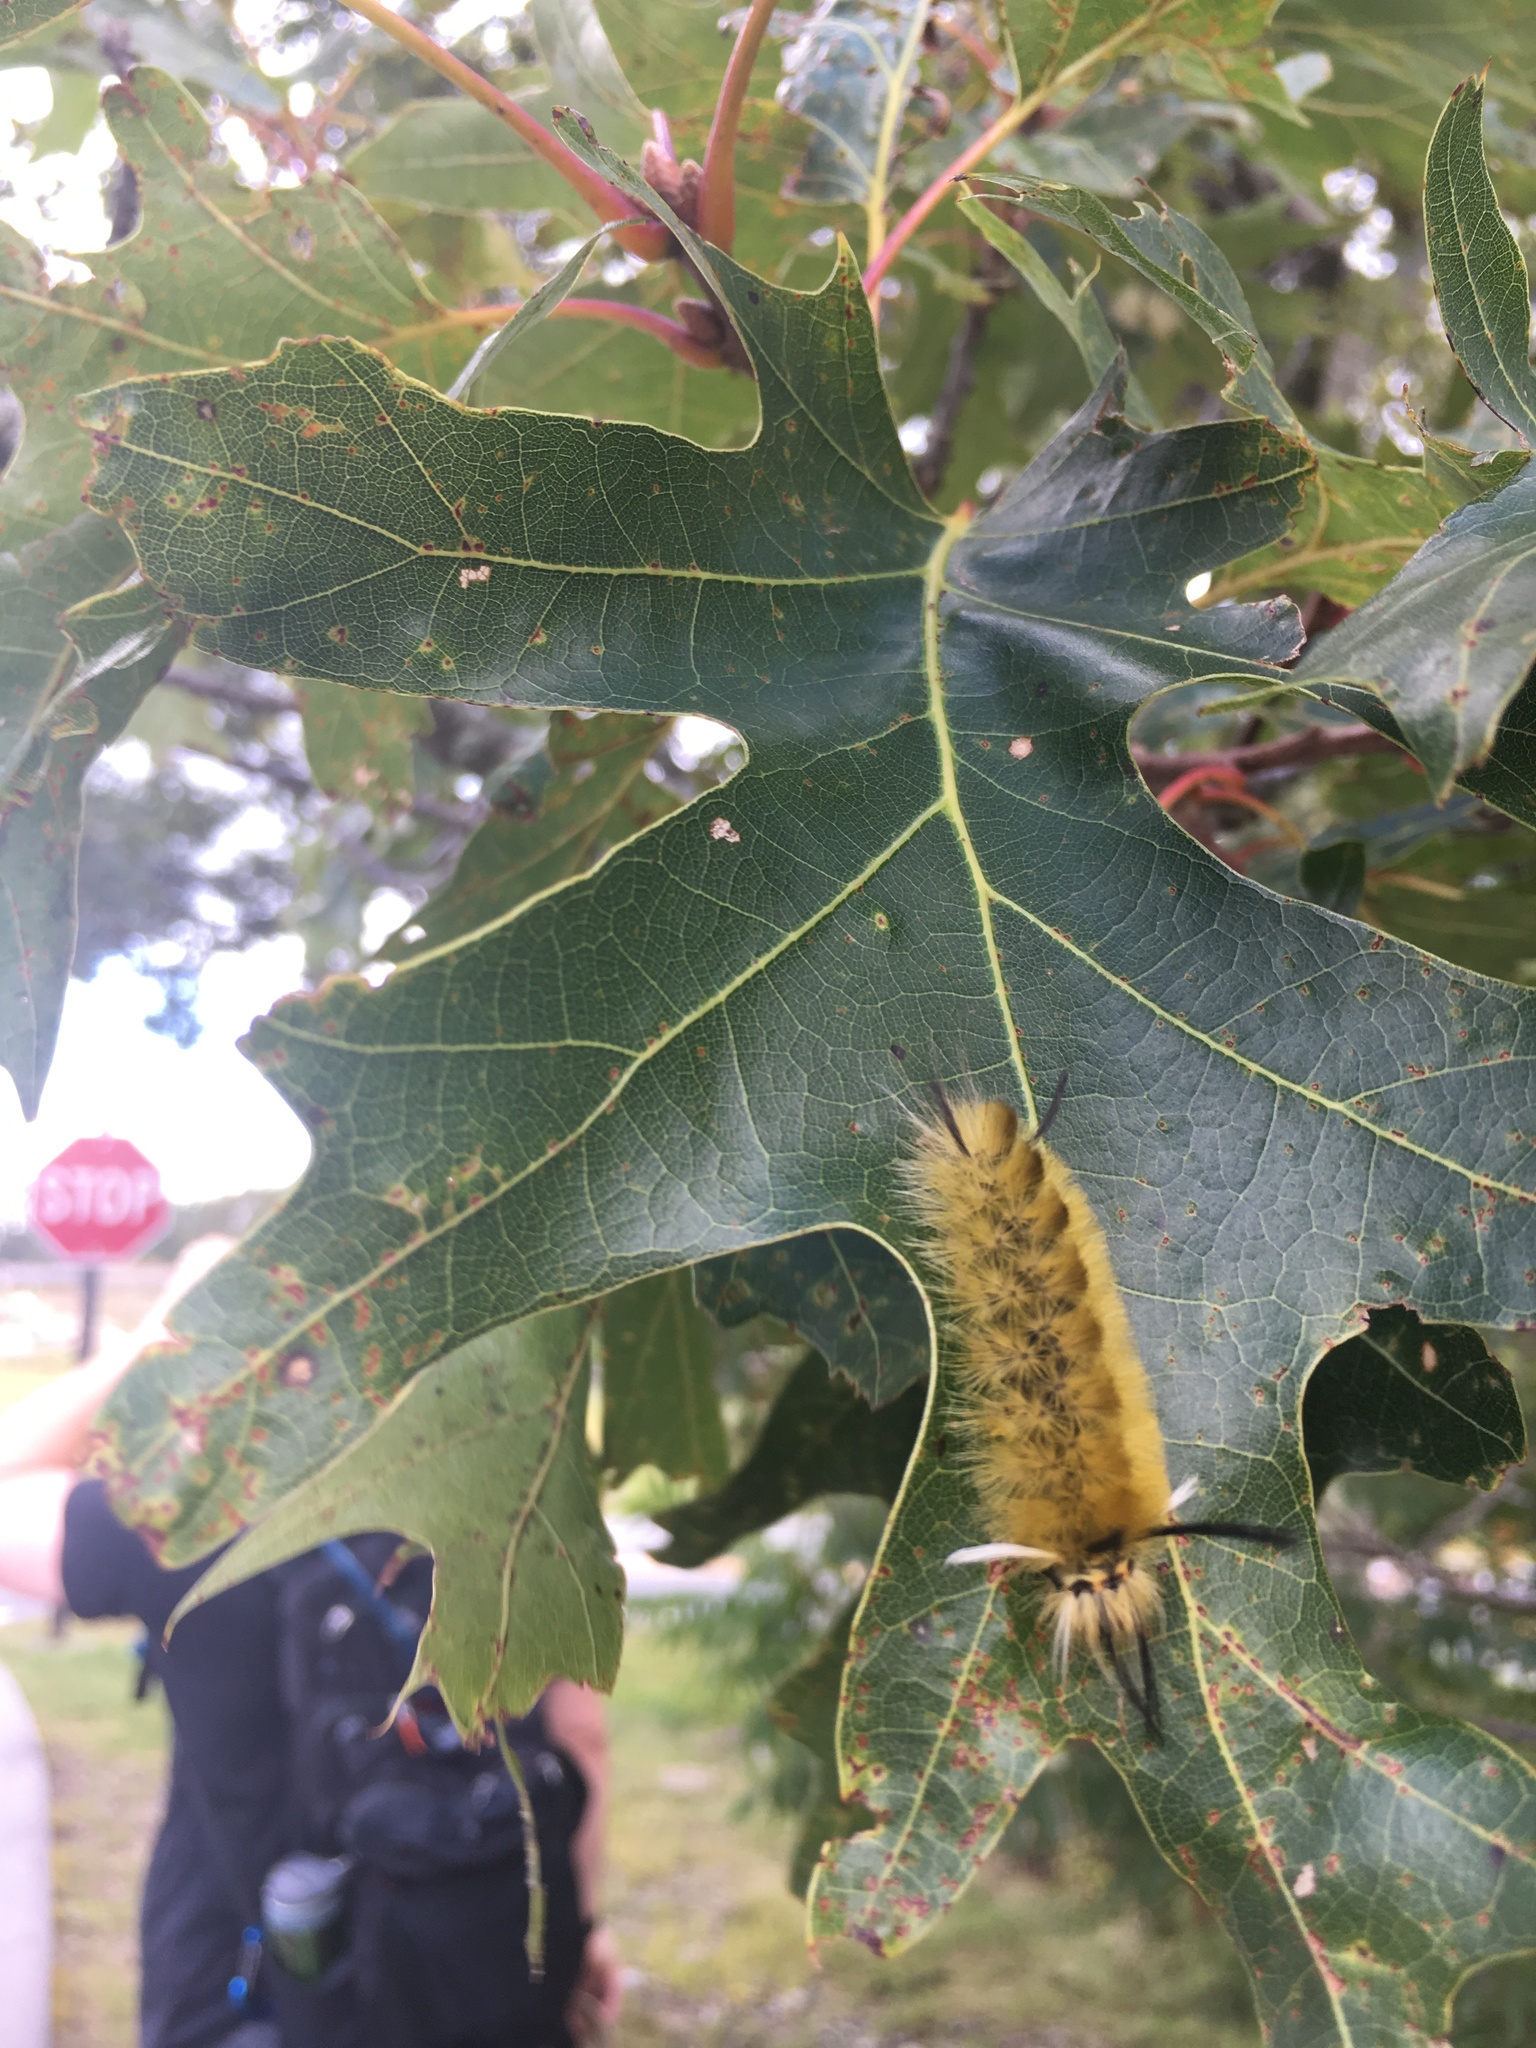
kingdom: Animalia
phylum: Arthropoda
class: Insecta
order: Lepidoptera
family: Erebidae
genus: Halysidota
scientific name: Halysidota tessellaris
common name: Banded tussock moth
